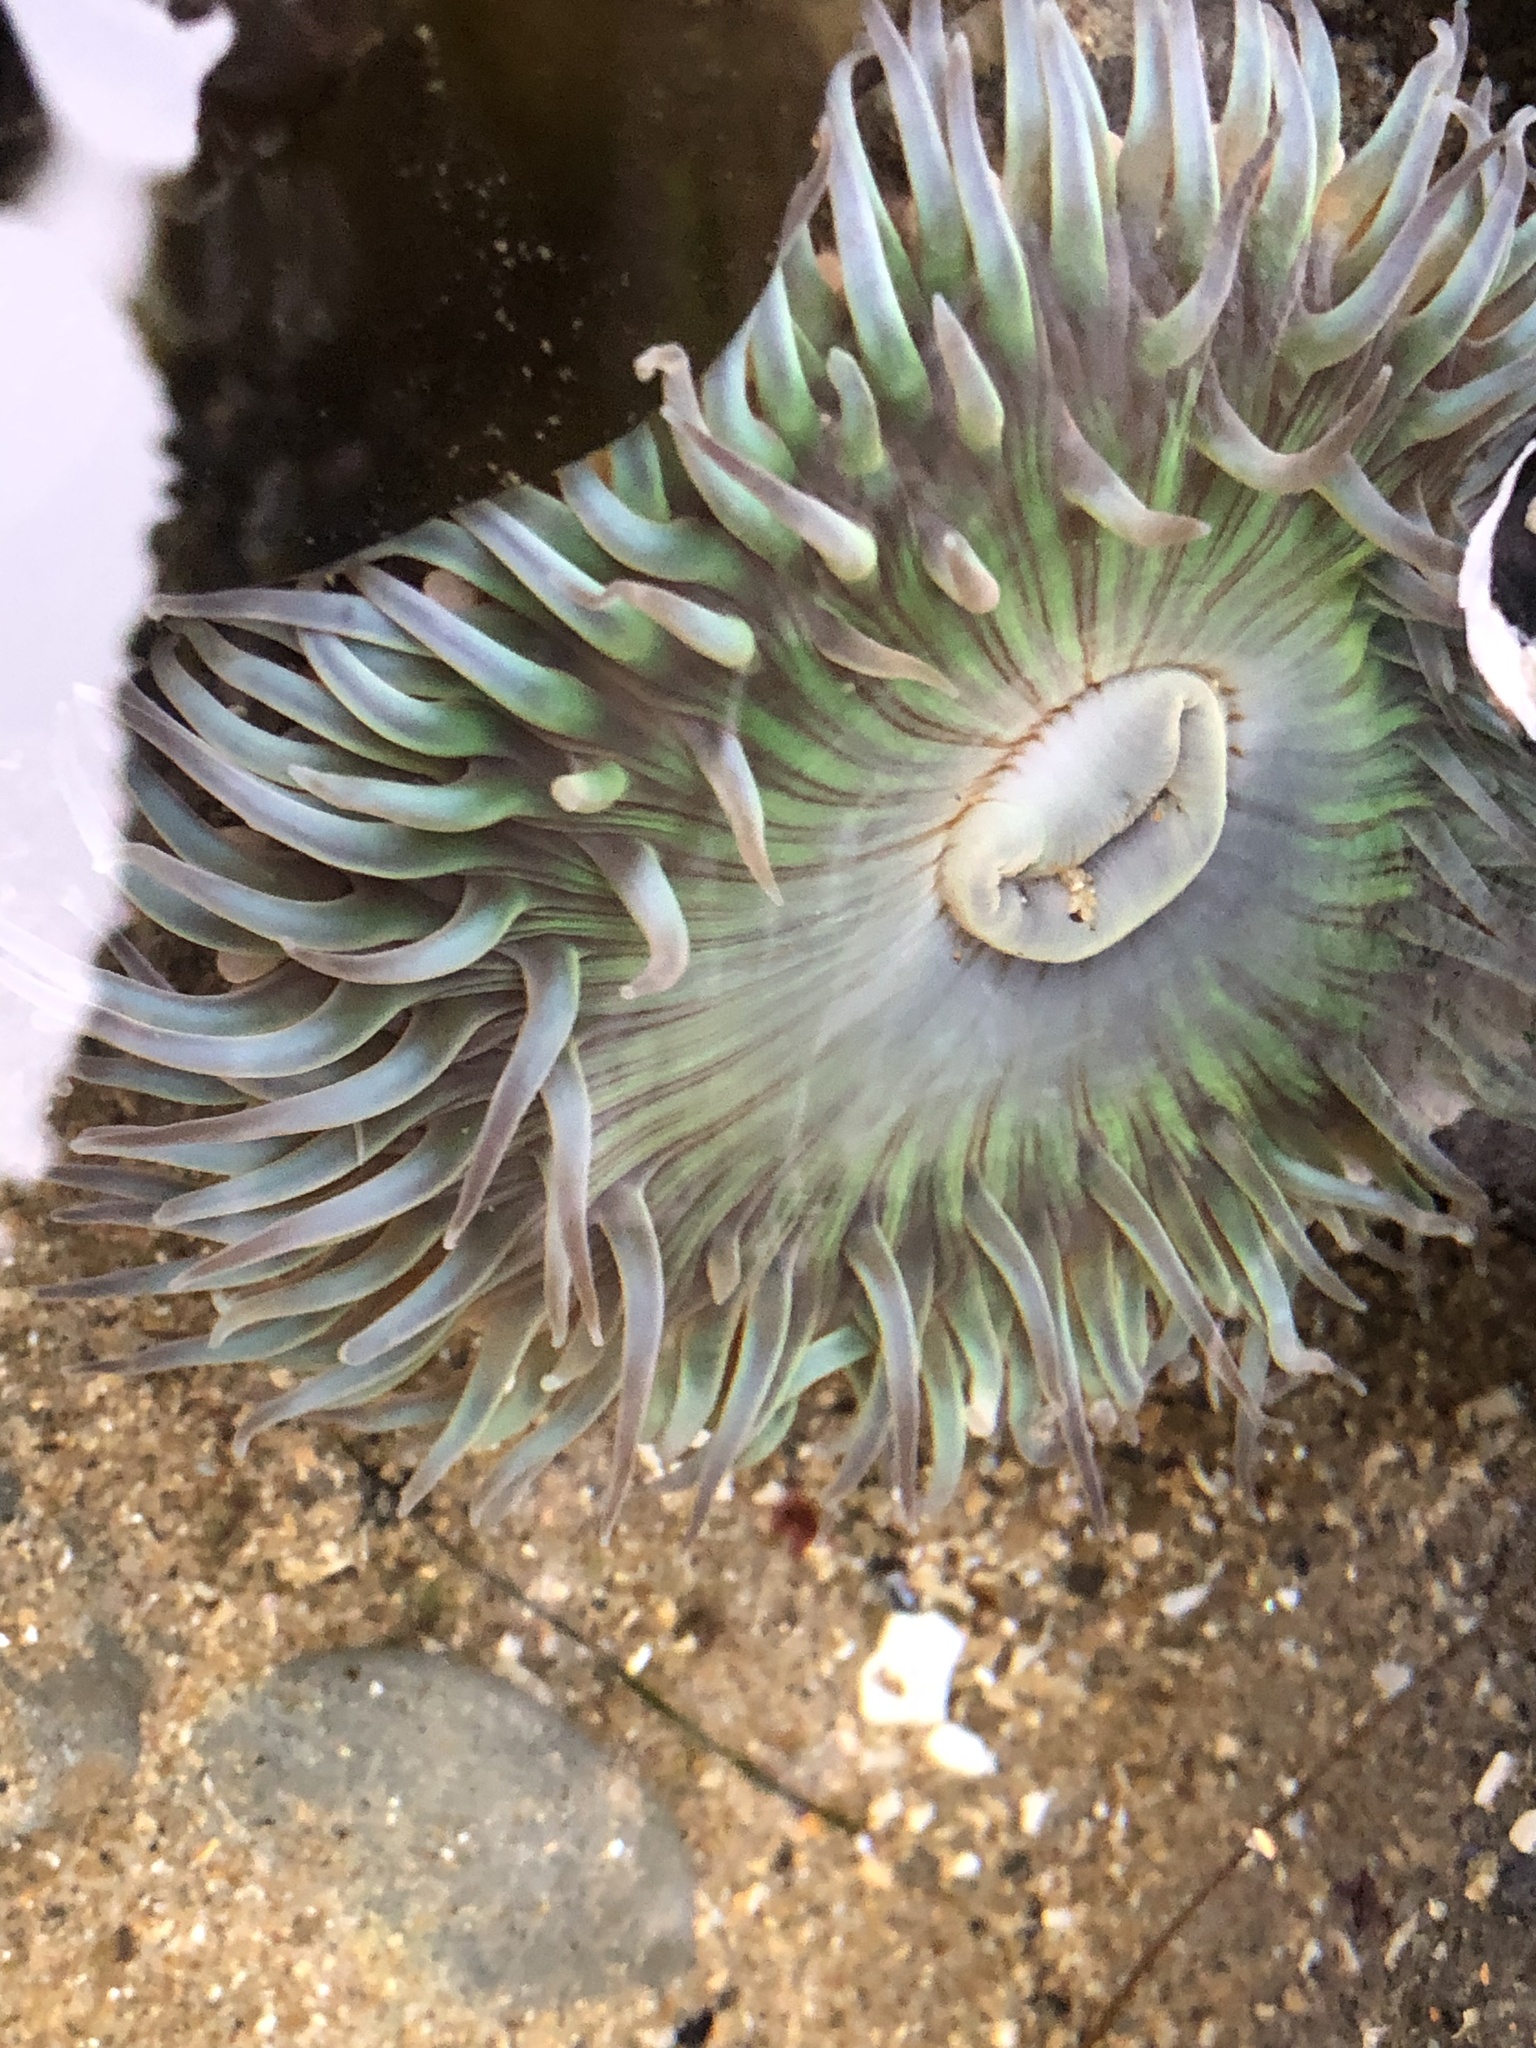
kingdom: Animalia
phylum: Cnidaria
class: Anthozoa
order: Actiniaria
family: Actiniidae
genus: Anthopleura
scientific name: Anthopleura sola
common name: Sun anemone
